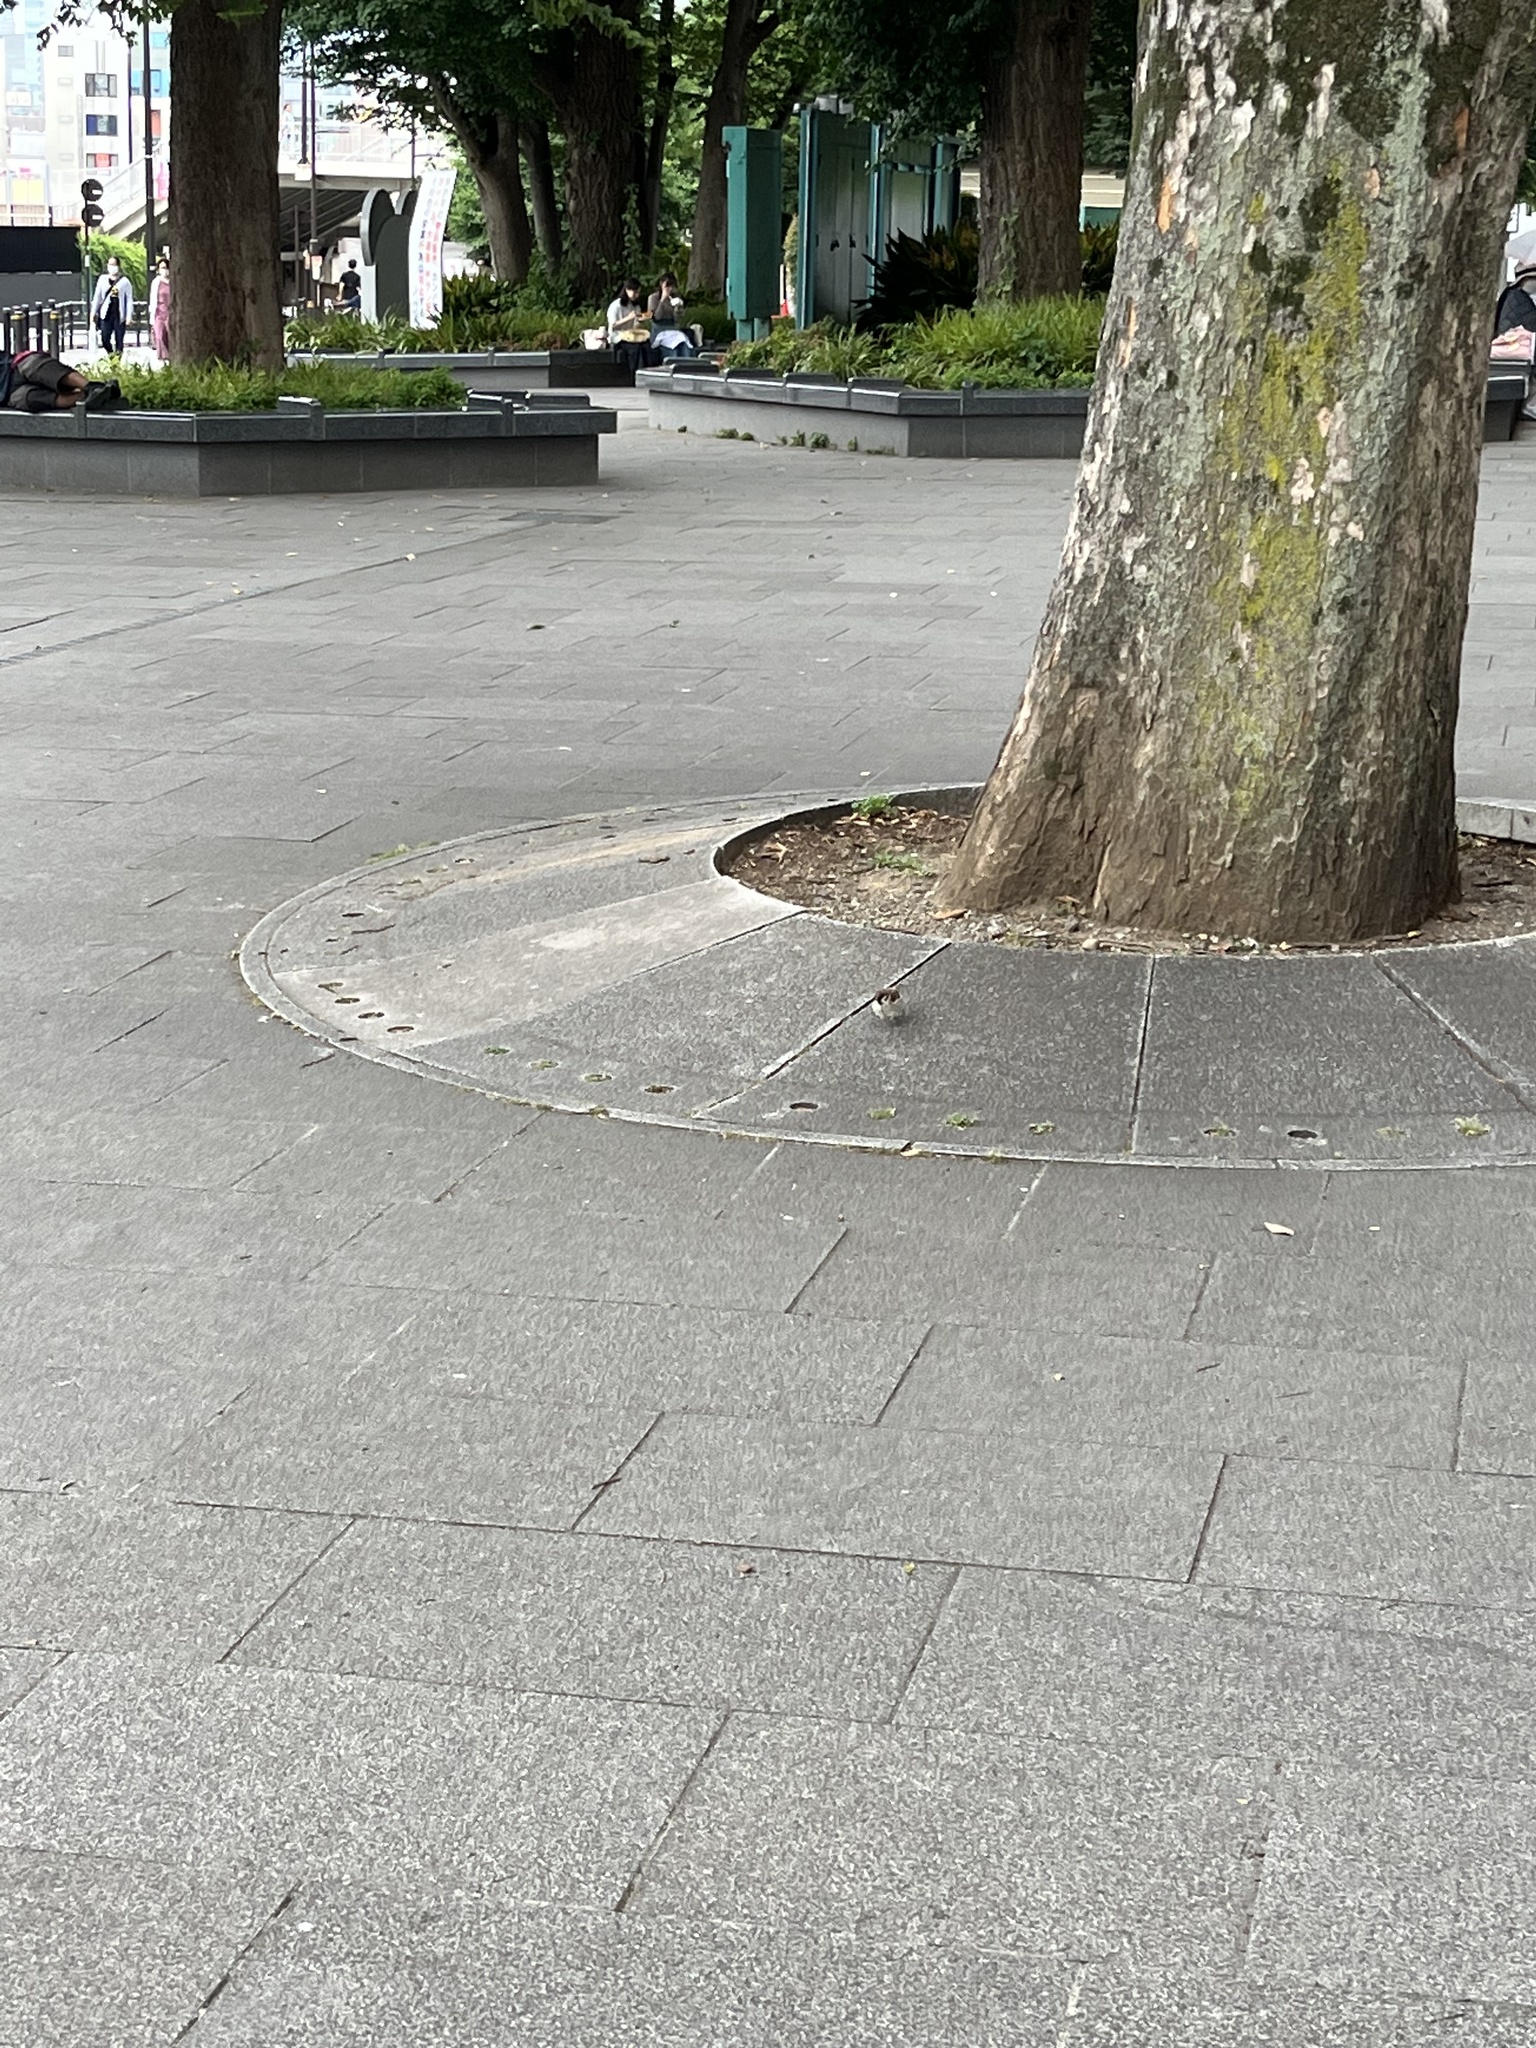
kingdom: Animalia
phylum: Chordata
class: Aves
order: Passeriformes
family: Passeridae
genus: Passer
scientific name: Passer montanus
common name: Eurasian tree sparrow
